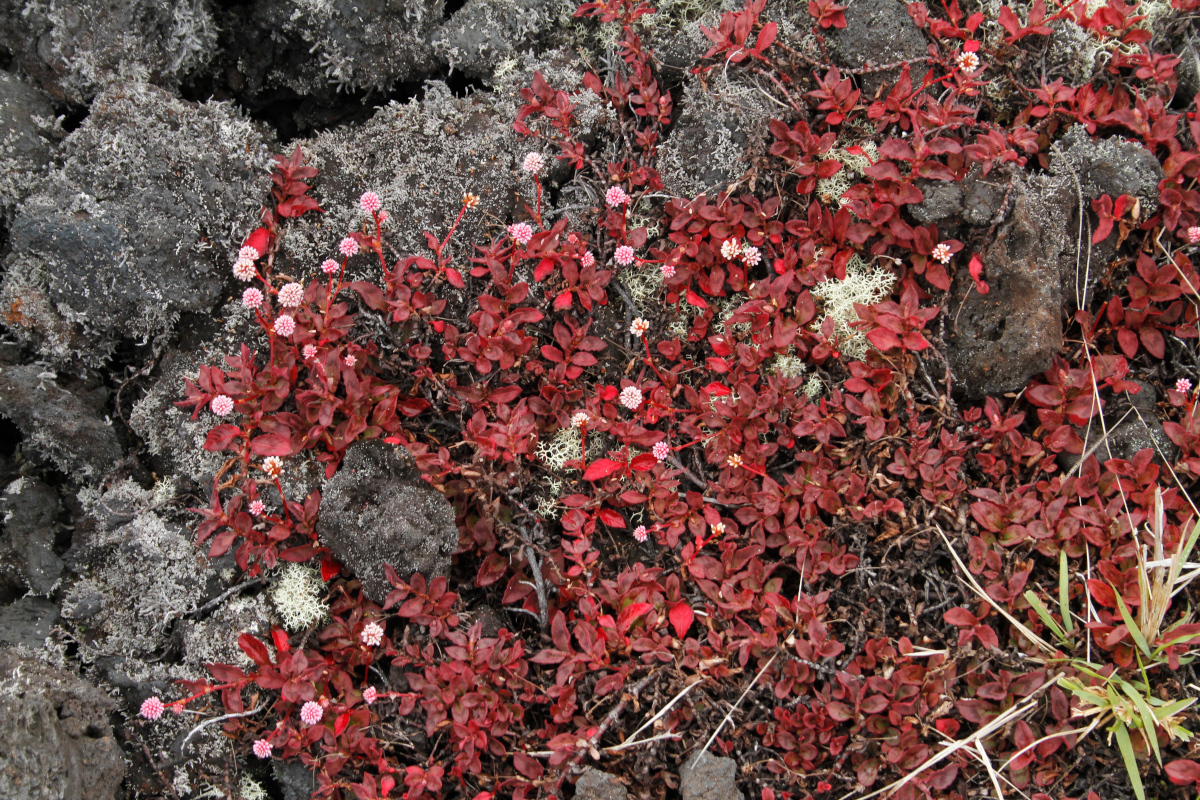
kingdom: Plantae
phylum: Tracheophyta
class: Magnoliopsida
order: Caryophyllales
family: Polygonaceae
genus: Persicaria
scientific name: Persicaria capitata
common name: Pinkhead smartweed
